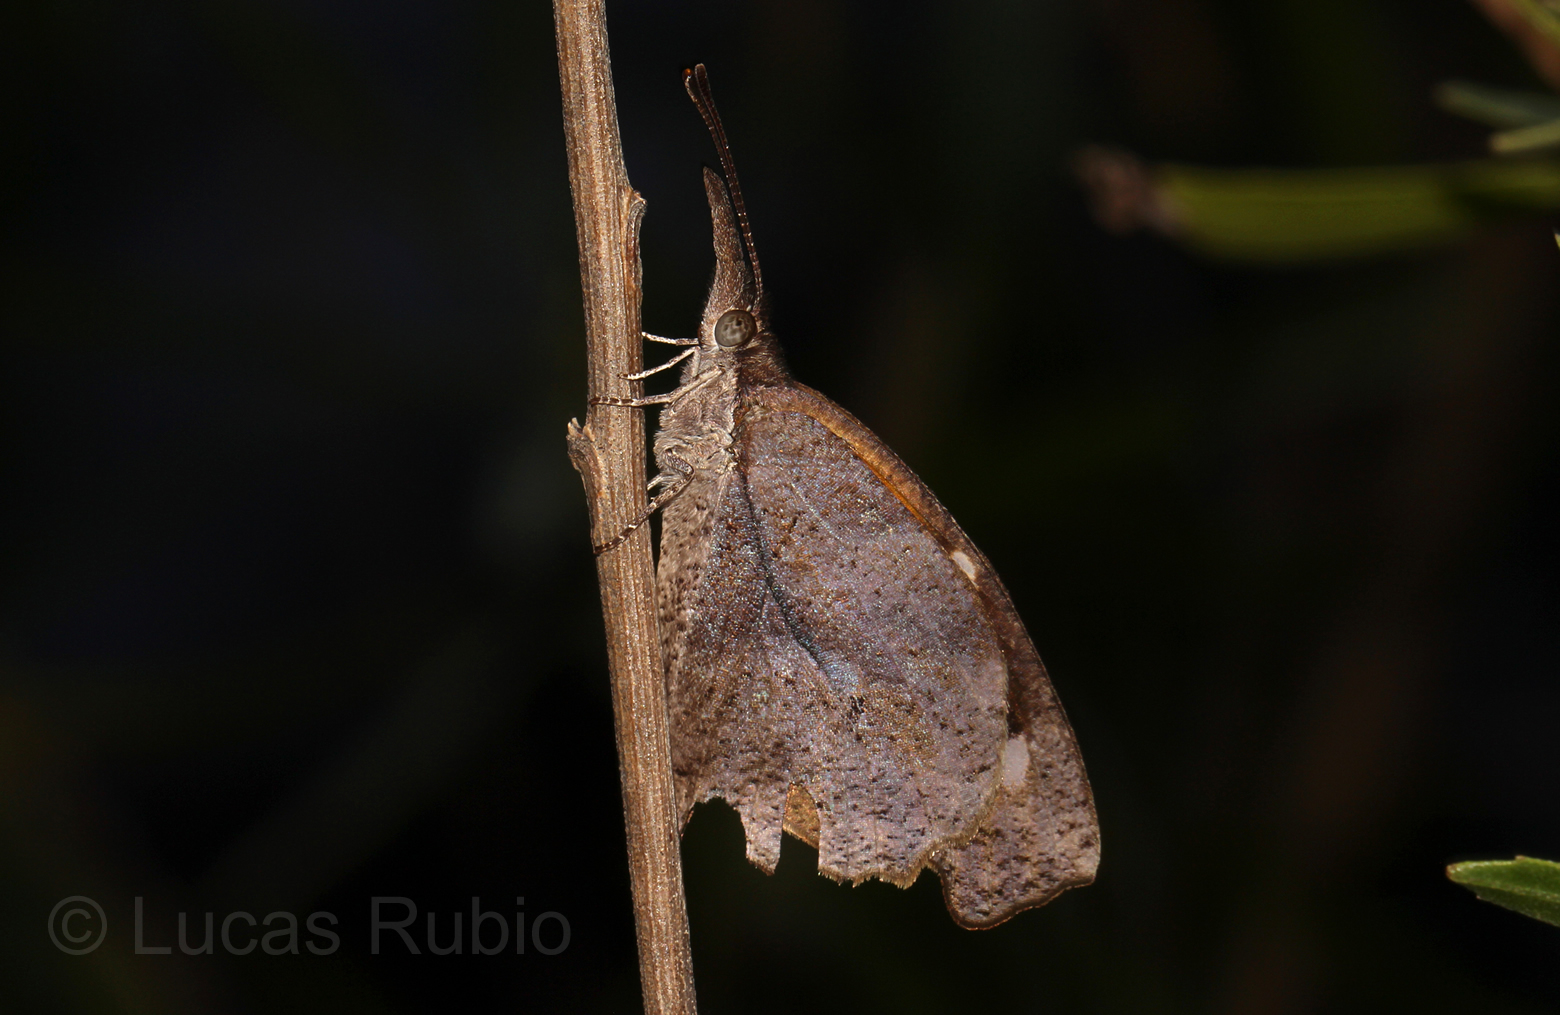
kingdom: Animalia
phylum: Arthropoda
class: Insecta
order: Lepidoptera
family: Nymphalidae
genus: Libytheana
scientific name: Libytheana carinenta
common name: American snout
